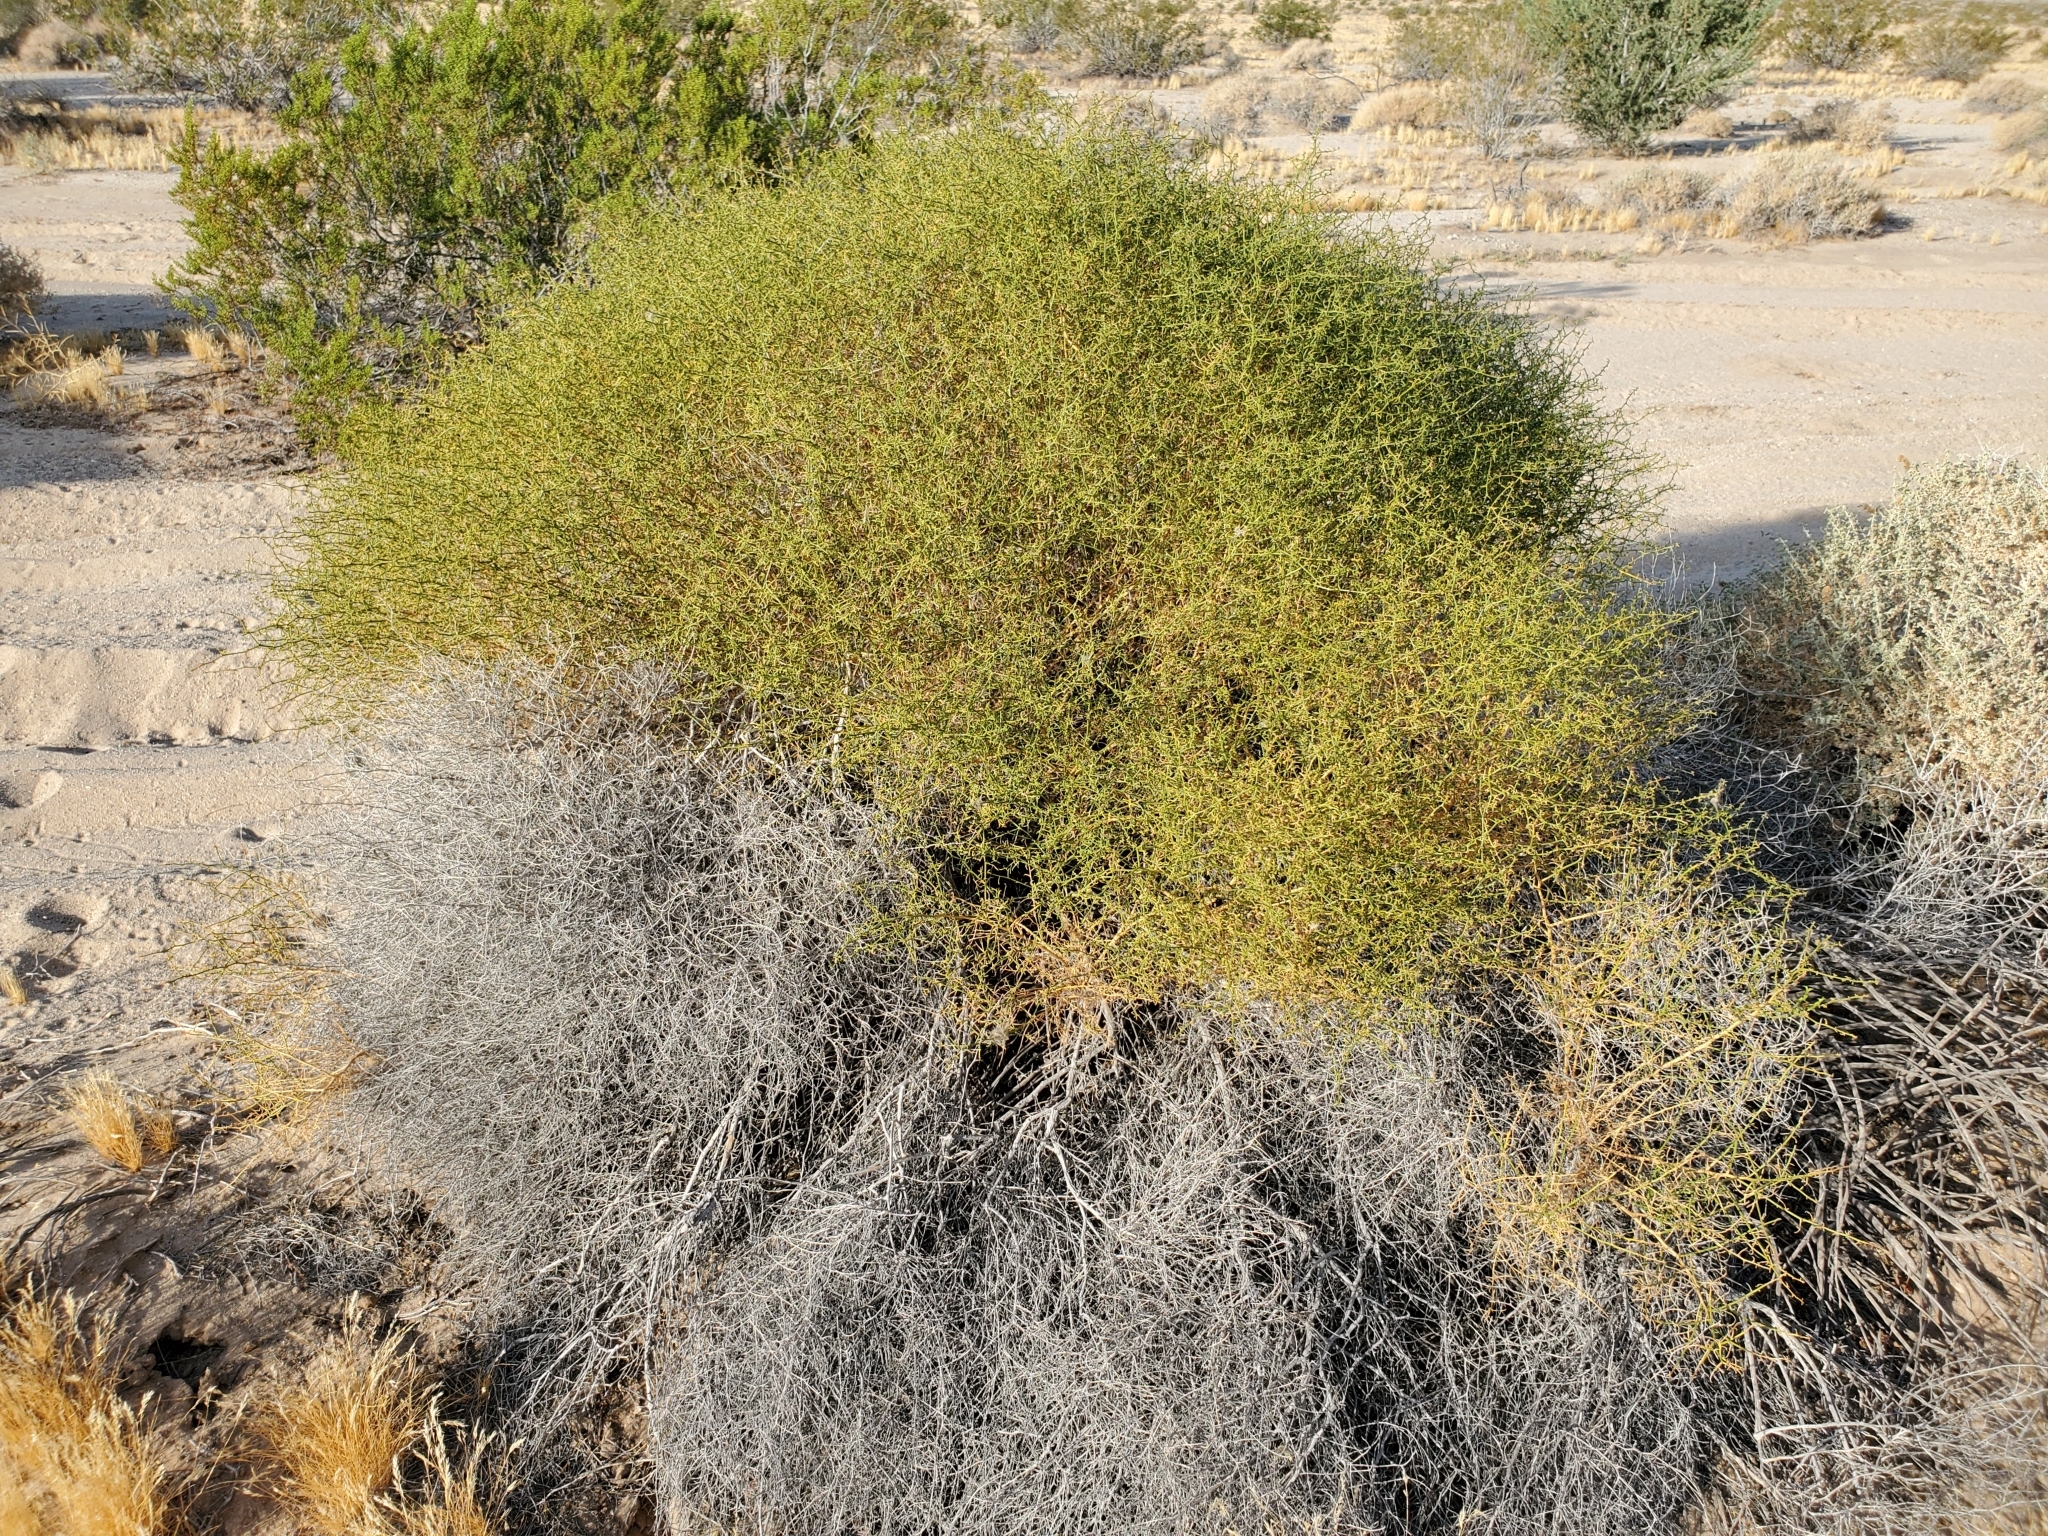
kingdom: Plantae
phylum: Tracheophyta
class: Magnoliopsida
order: Asterales
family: Asteraceae
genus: Ambrosia
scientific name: Ambrosia salsola
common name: Burrobrush
